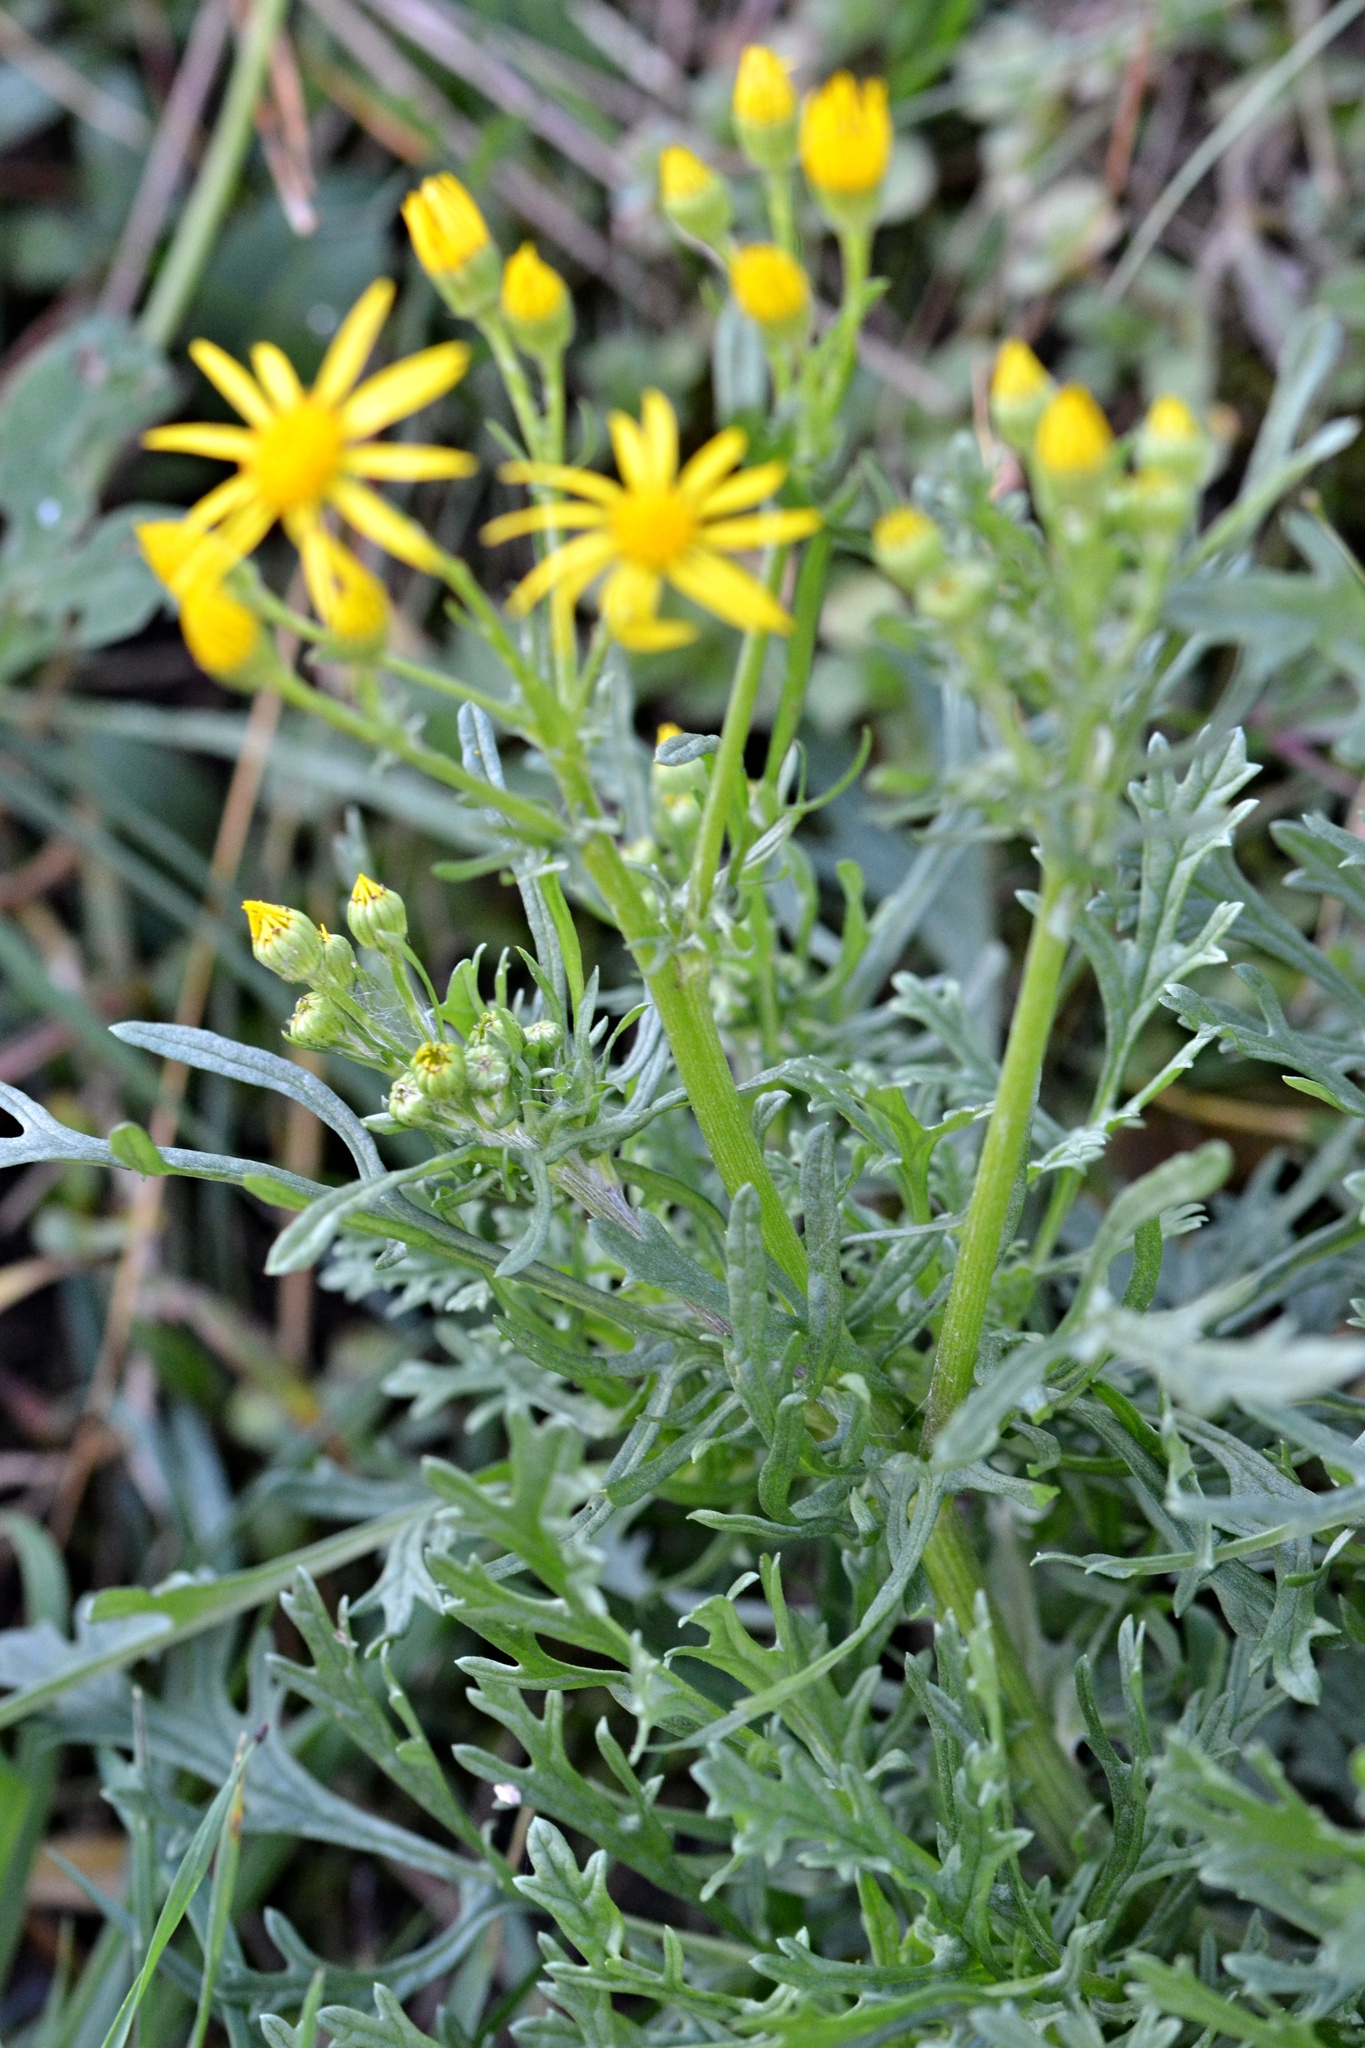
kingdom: Plantae
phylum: Tracheophyta
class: Magnoliopsida
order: Asterales
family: Asteraceae
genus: Jacobaea
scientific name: Jacobaea vulgaris
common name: Stinking willie
